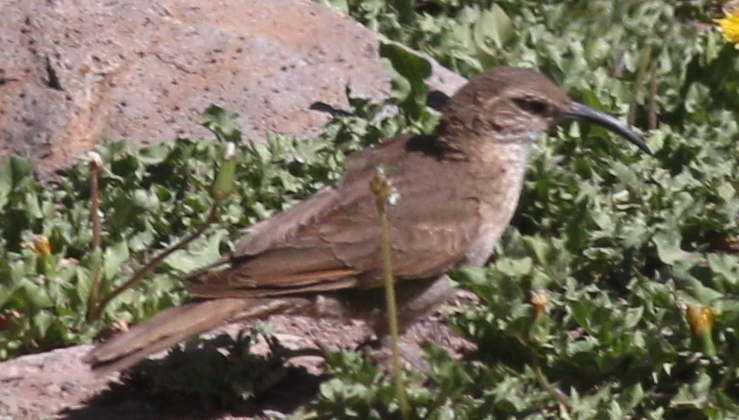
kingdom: Animalia
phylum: Chordata
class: Aves
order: Passeriformes
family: Furnariidae
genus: Upucerthia
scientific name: Upucerthia dumetaria
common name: Scale-throated earthcreeper
